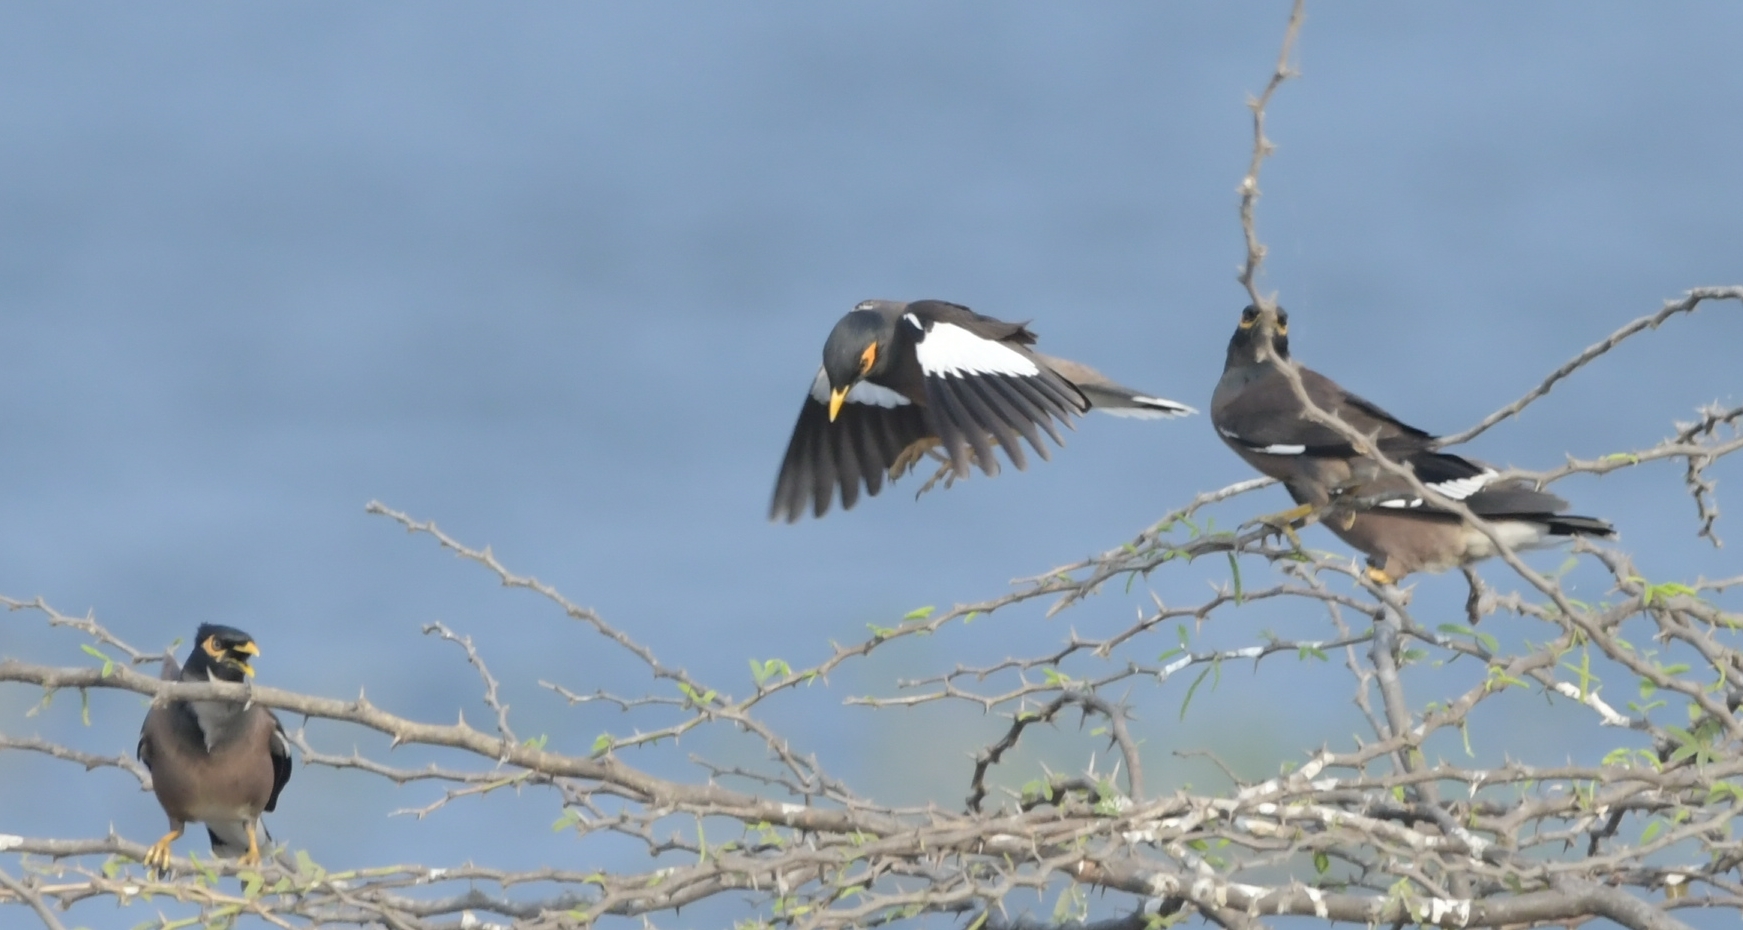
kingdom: Animalia
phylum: Chordata
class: Aves
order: Passeriformes
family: Sturnidae
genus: Acridotheres
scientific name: Acridotheres tristis
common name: Common myna
